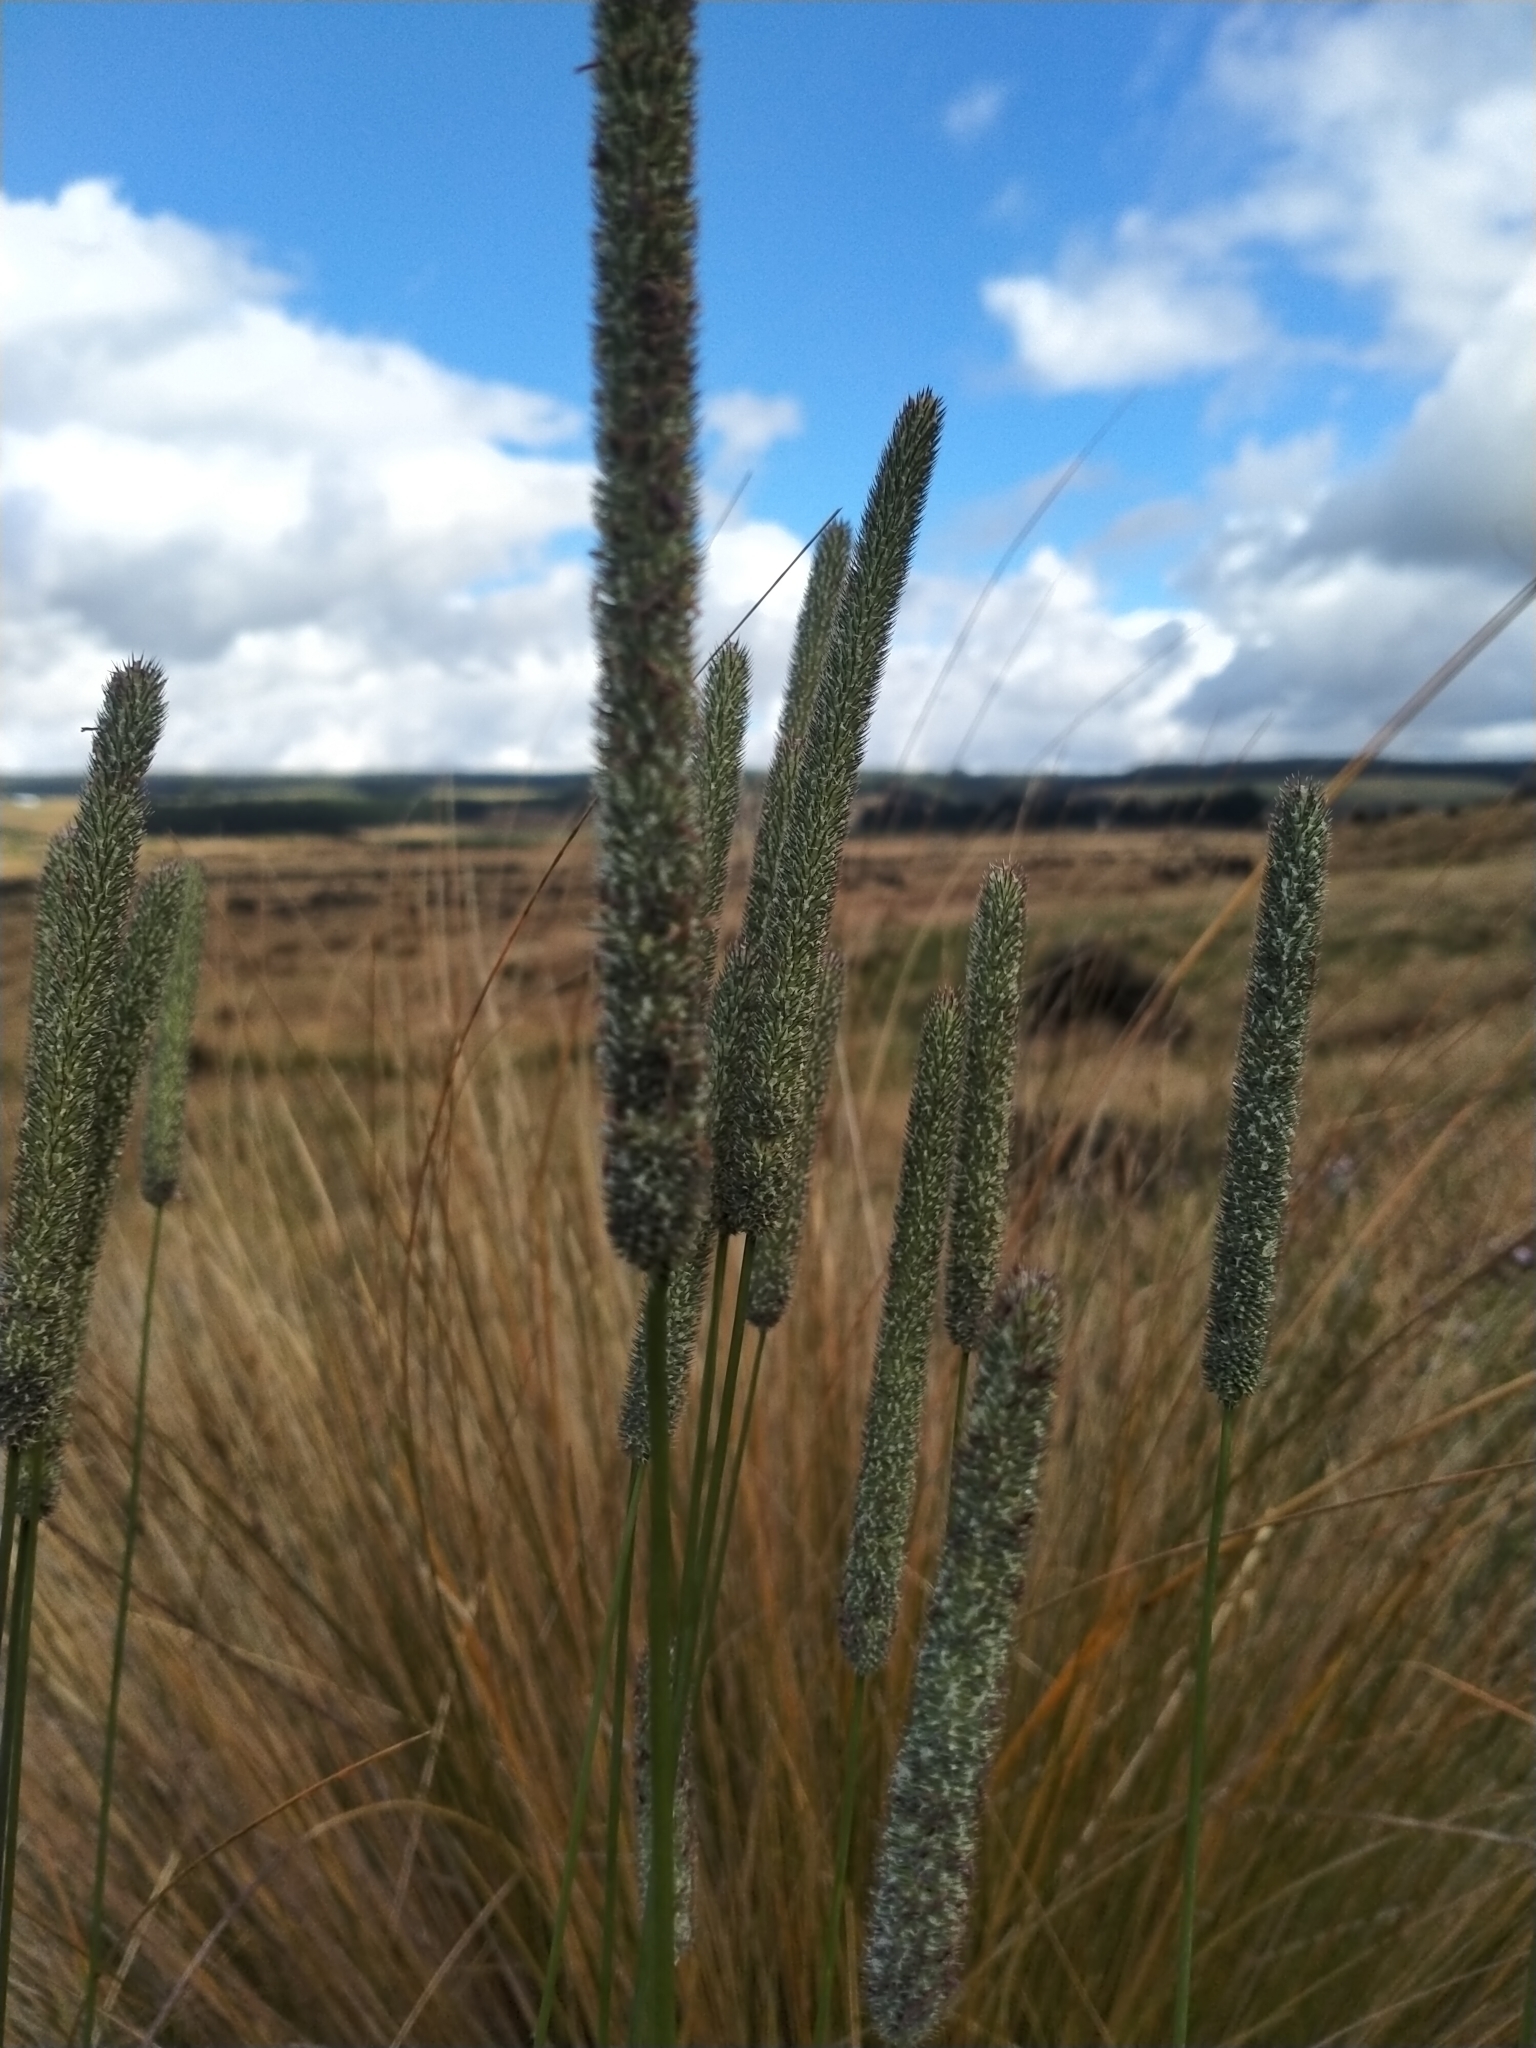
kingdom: Plantae
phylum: Tracheophyta
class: Liliopsida
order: Poales
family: Poaceae
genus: Phleum
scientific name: Phleum pratense
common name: Timothy grass
